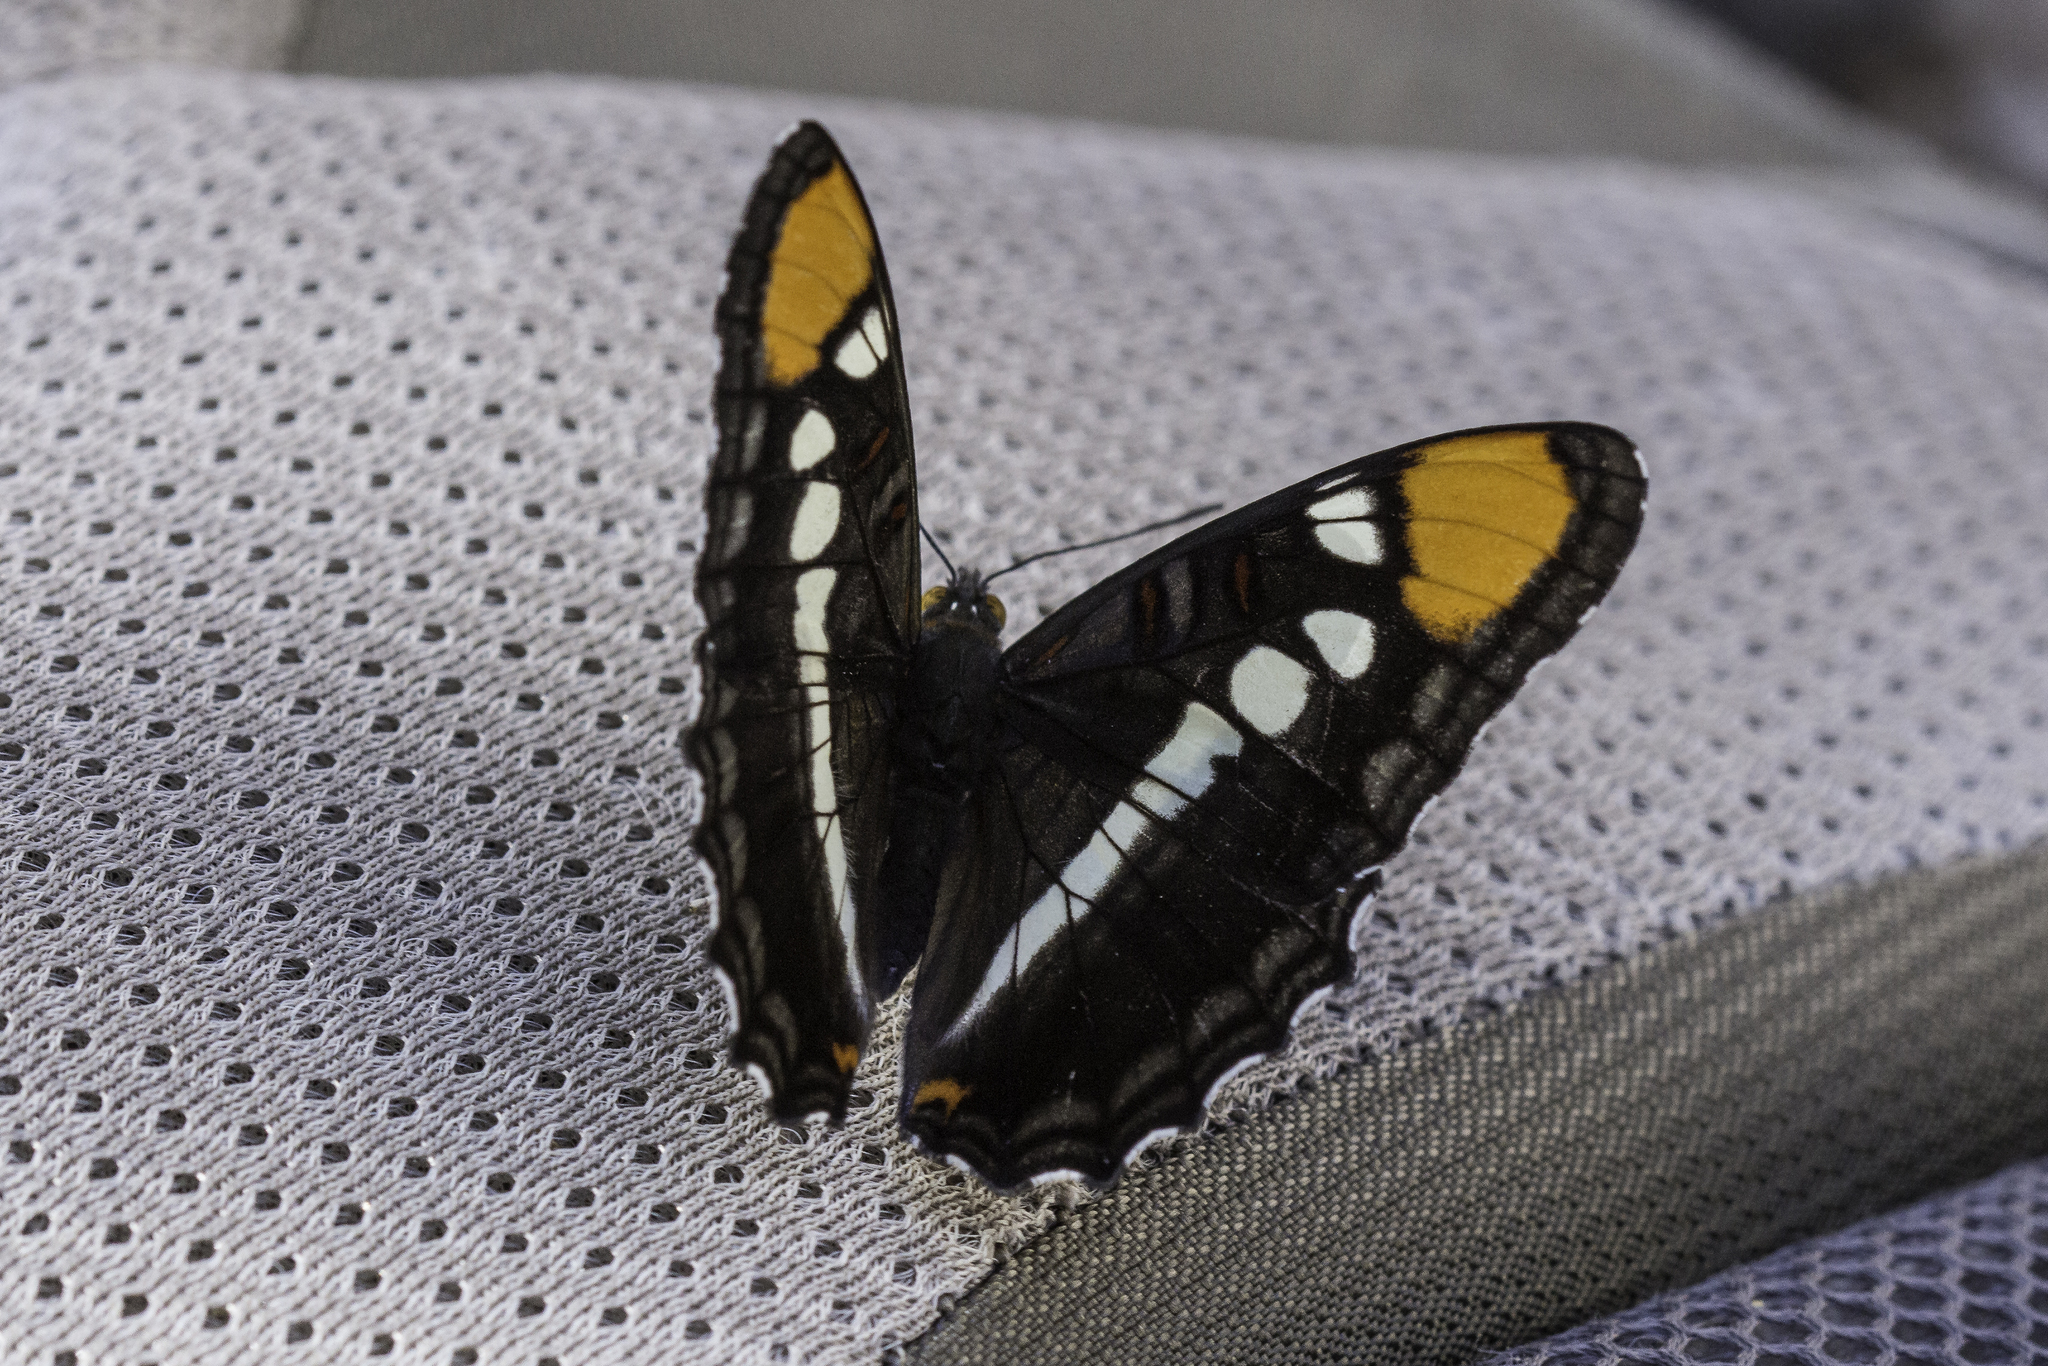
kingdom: Animalia
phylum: Arthropoda
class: Insecta
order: Lepidoptera
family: Nymphalidae
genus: Limenitis
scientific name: Limenitis bredowii
